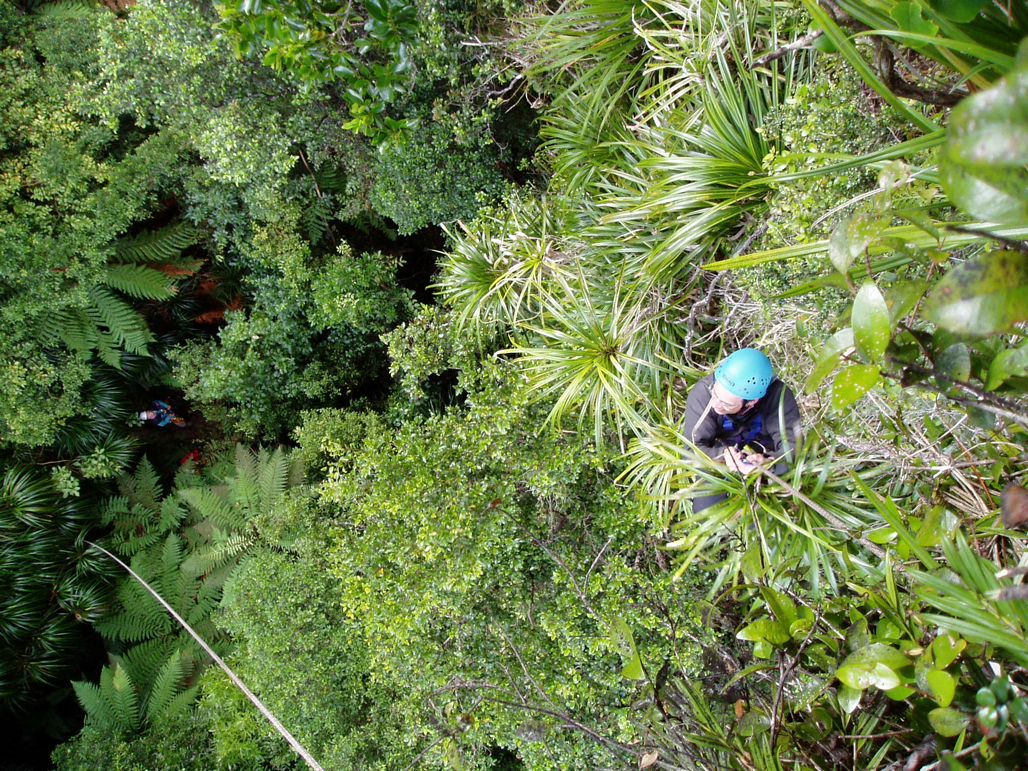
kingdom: Plantae
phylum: Tracheophyta
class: Liliopsida
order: Pandanales
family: Pandanaceae
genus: Freycinetia
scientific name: Freycinetia banksii
